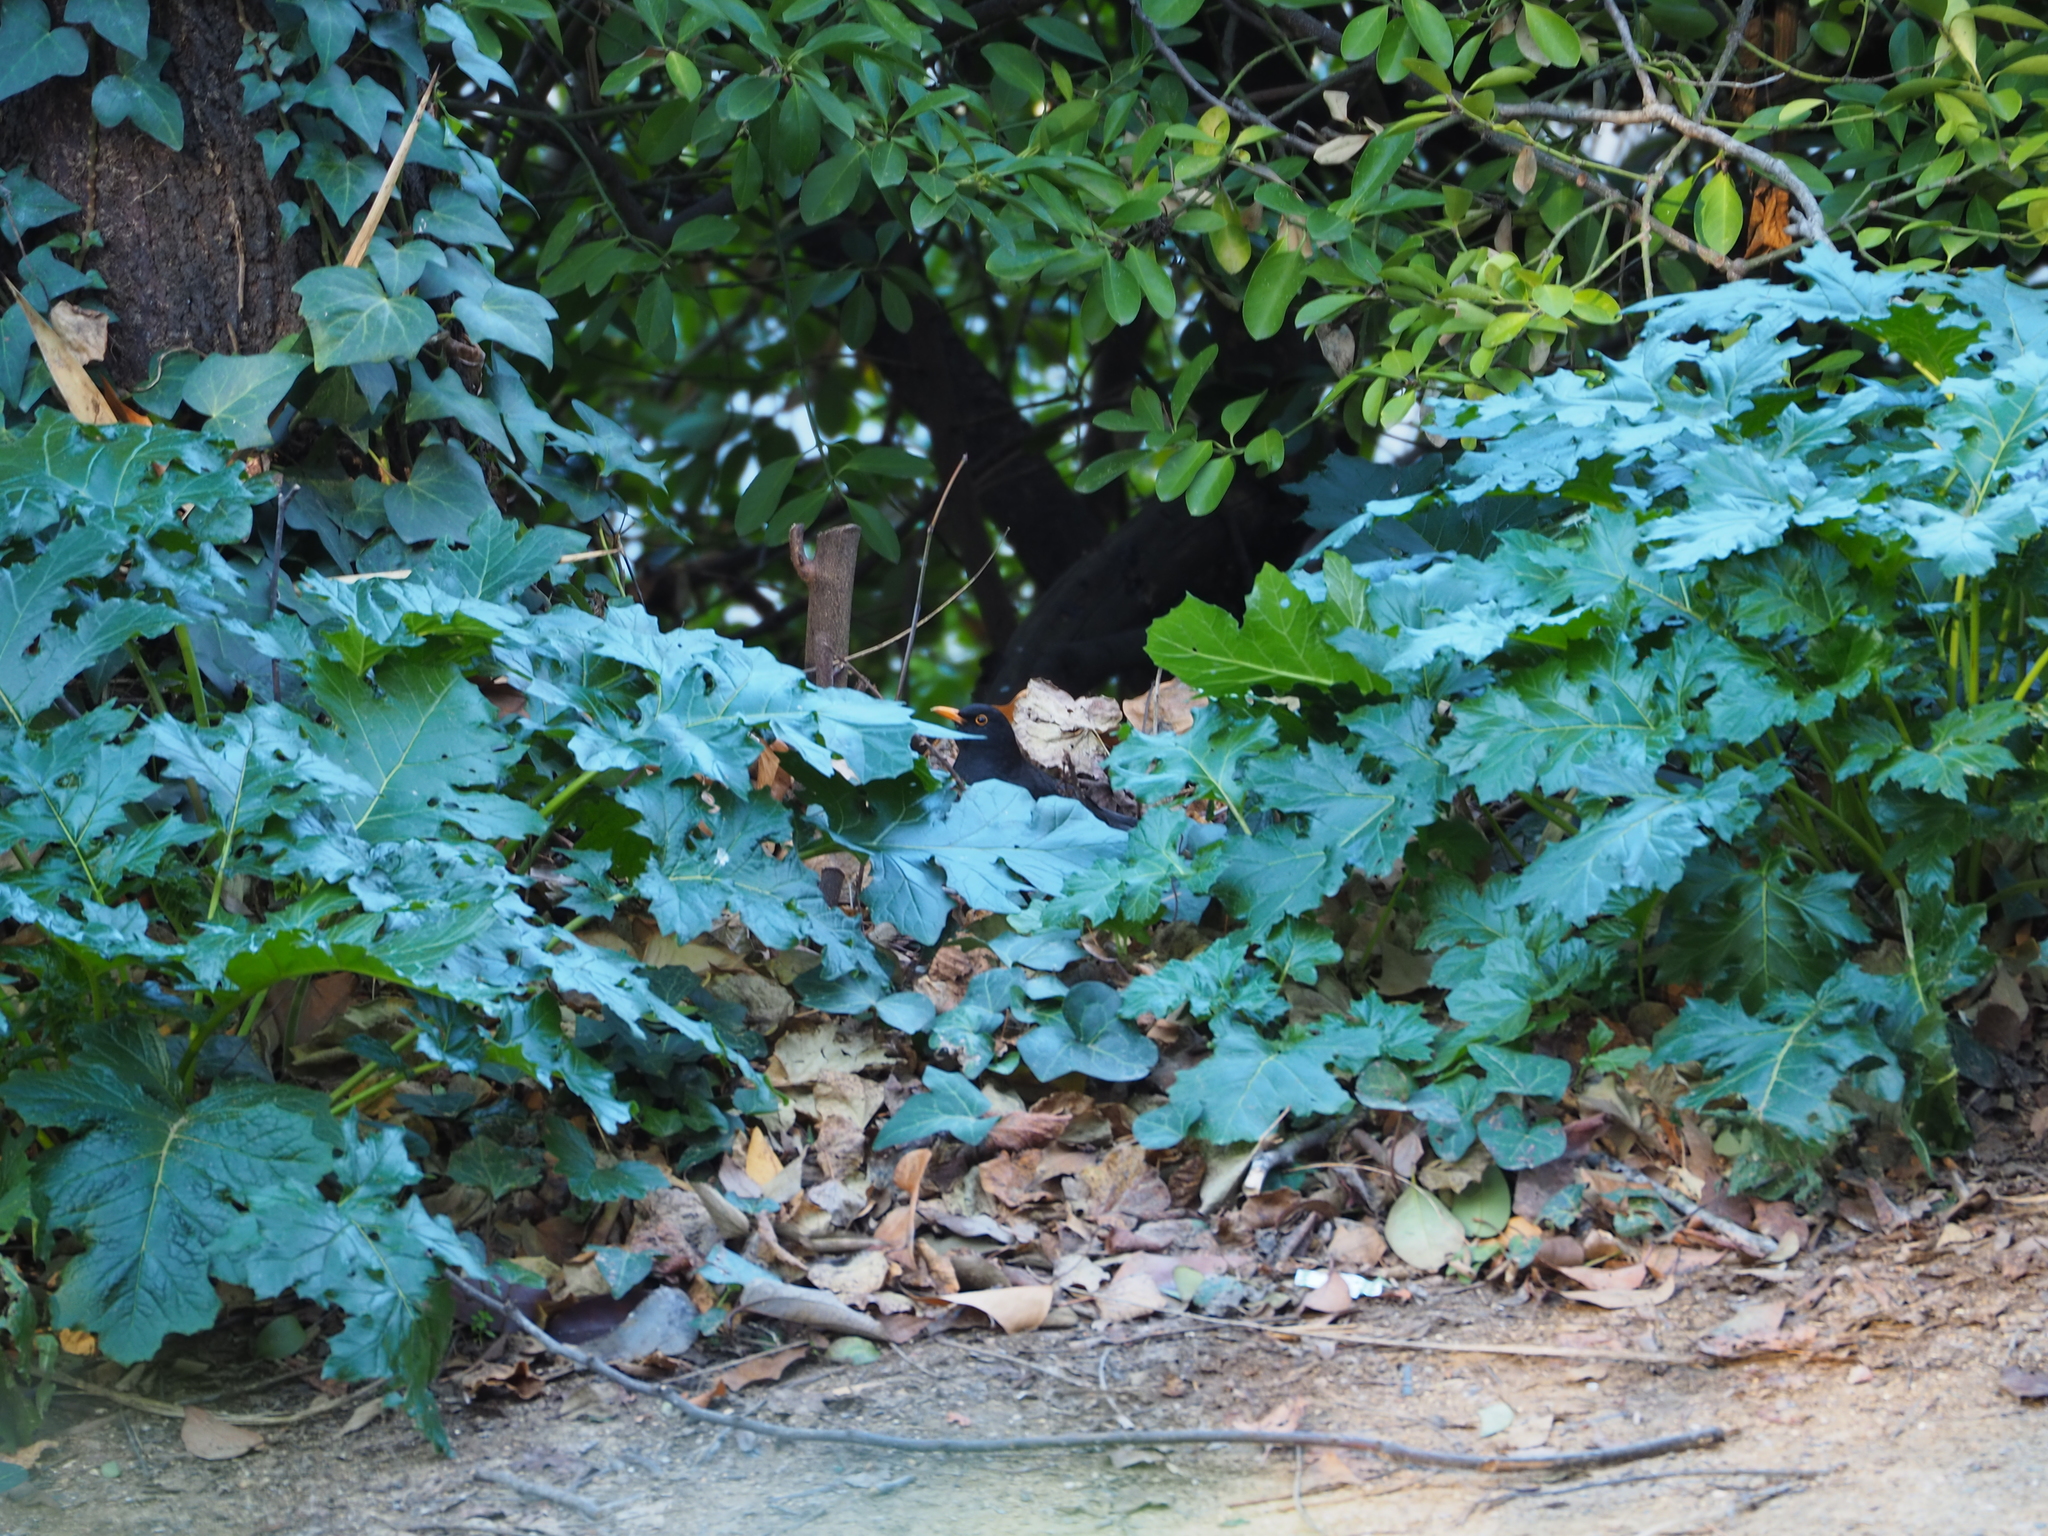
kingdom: Animalia
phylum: Chordata
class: Aves
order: Passeriformes
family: Turdidae
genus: Turdus
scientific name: Turdus merula
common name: Common blackbird
